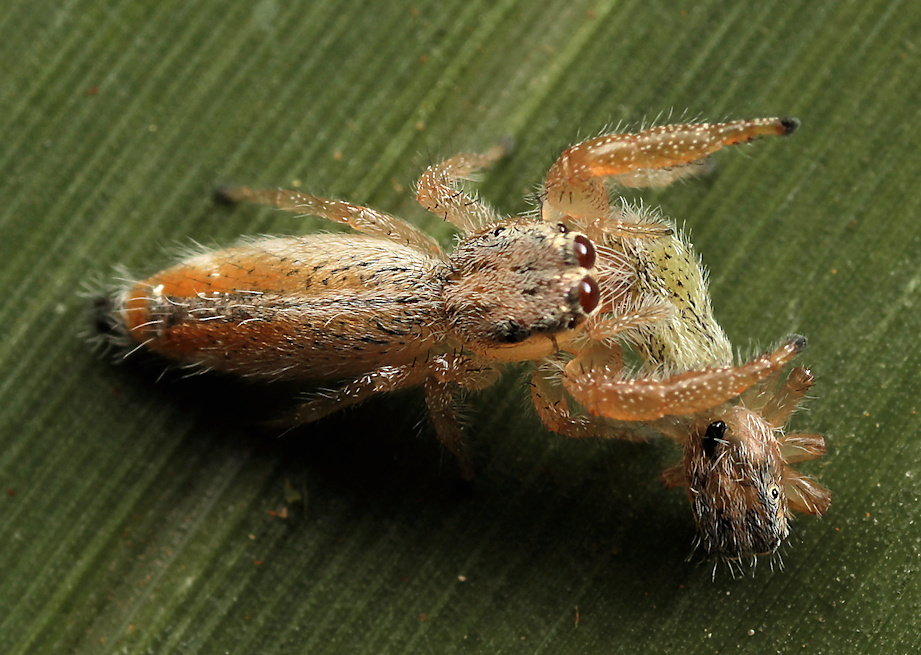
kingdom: Animalia
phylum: Arthropoda
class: Arachnida
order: Araneae
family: Salticidae
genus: Thyene
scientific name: Thyene thyenioides
